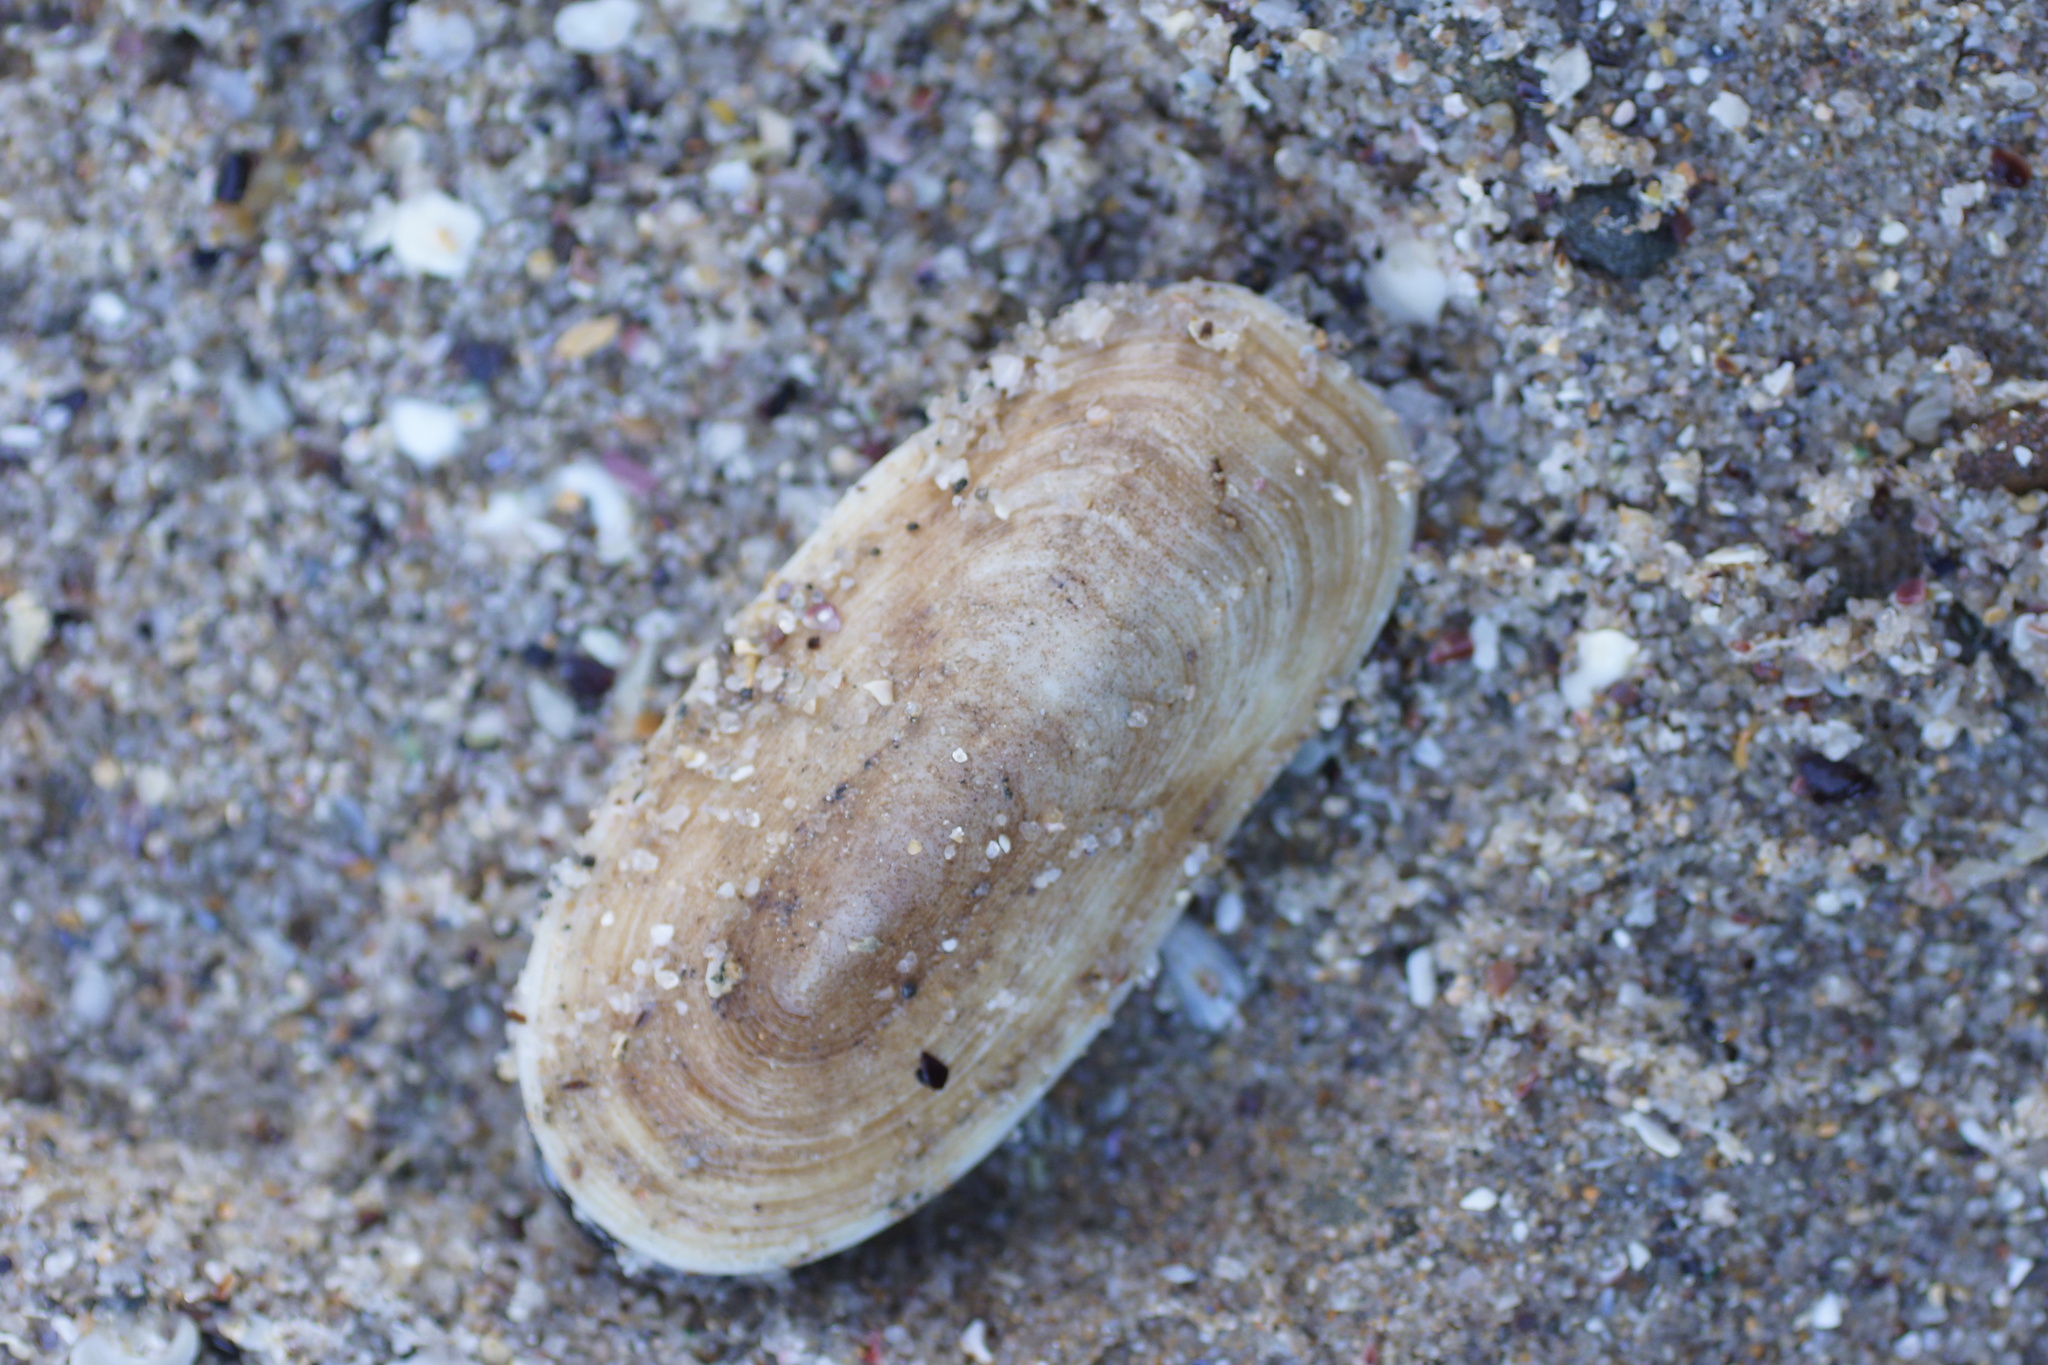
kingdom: Animalia
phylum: Mollusca
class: Gastropoda
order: Lepetellida
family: Fissurellidae
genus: Scutus
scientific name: Scutus antipodes
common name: Duckbill shell
